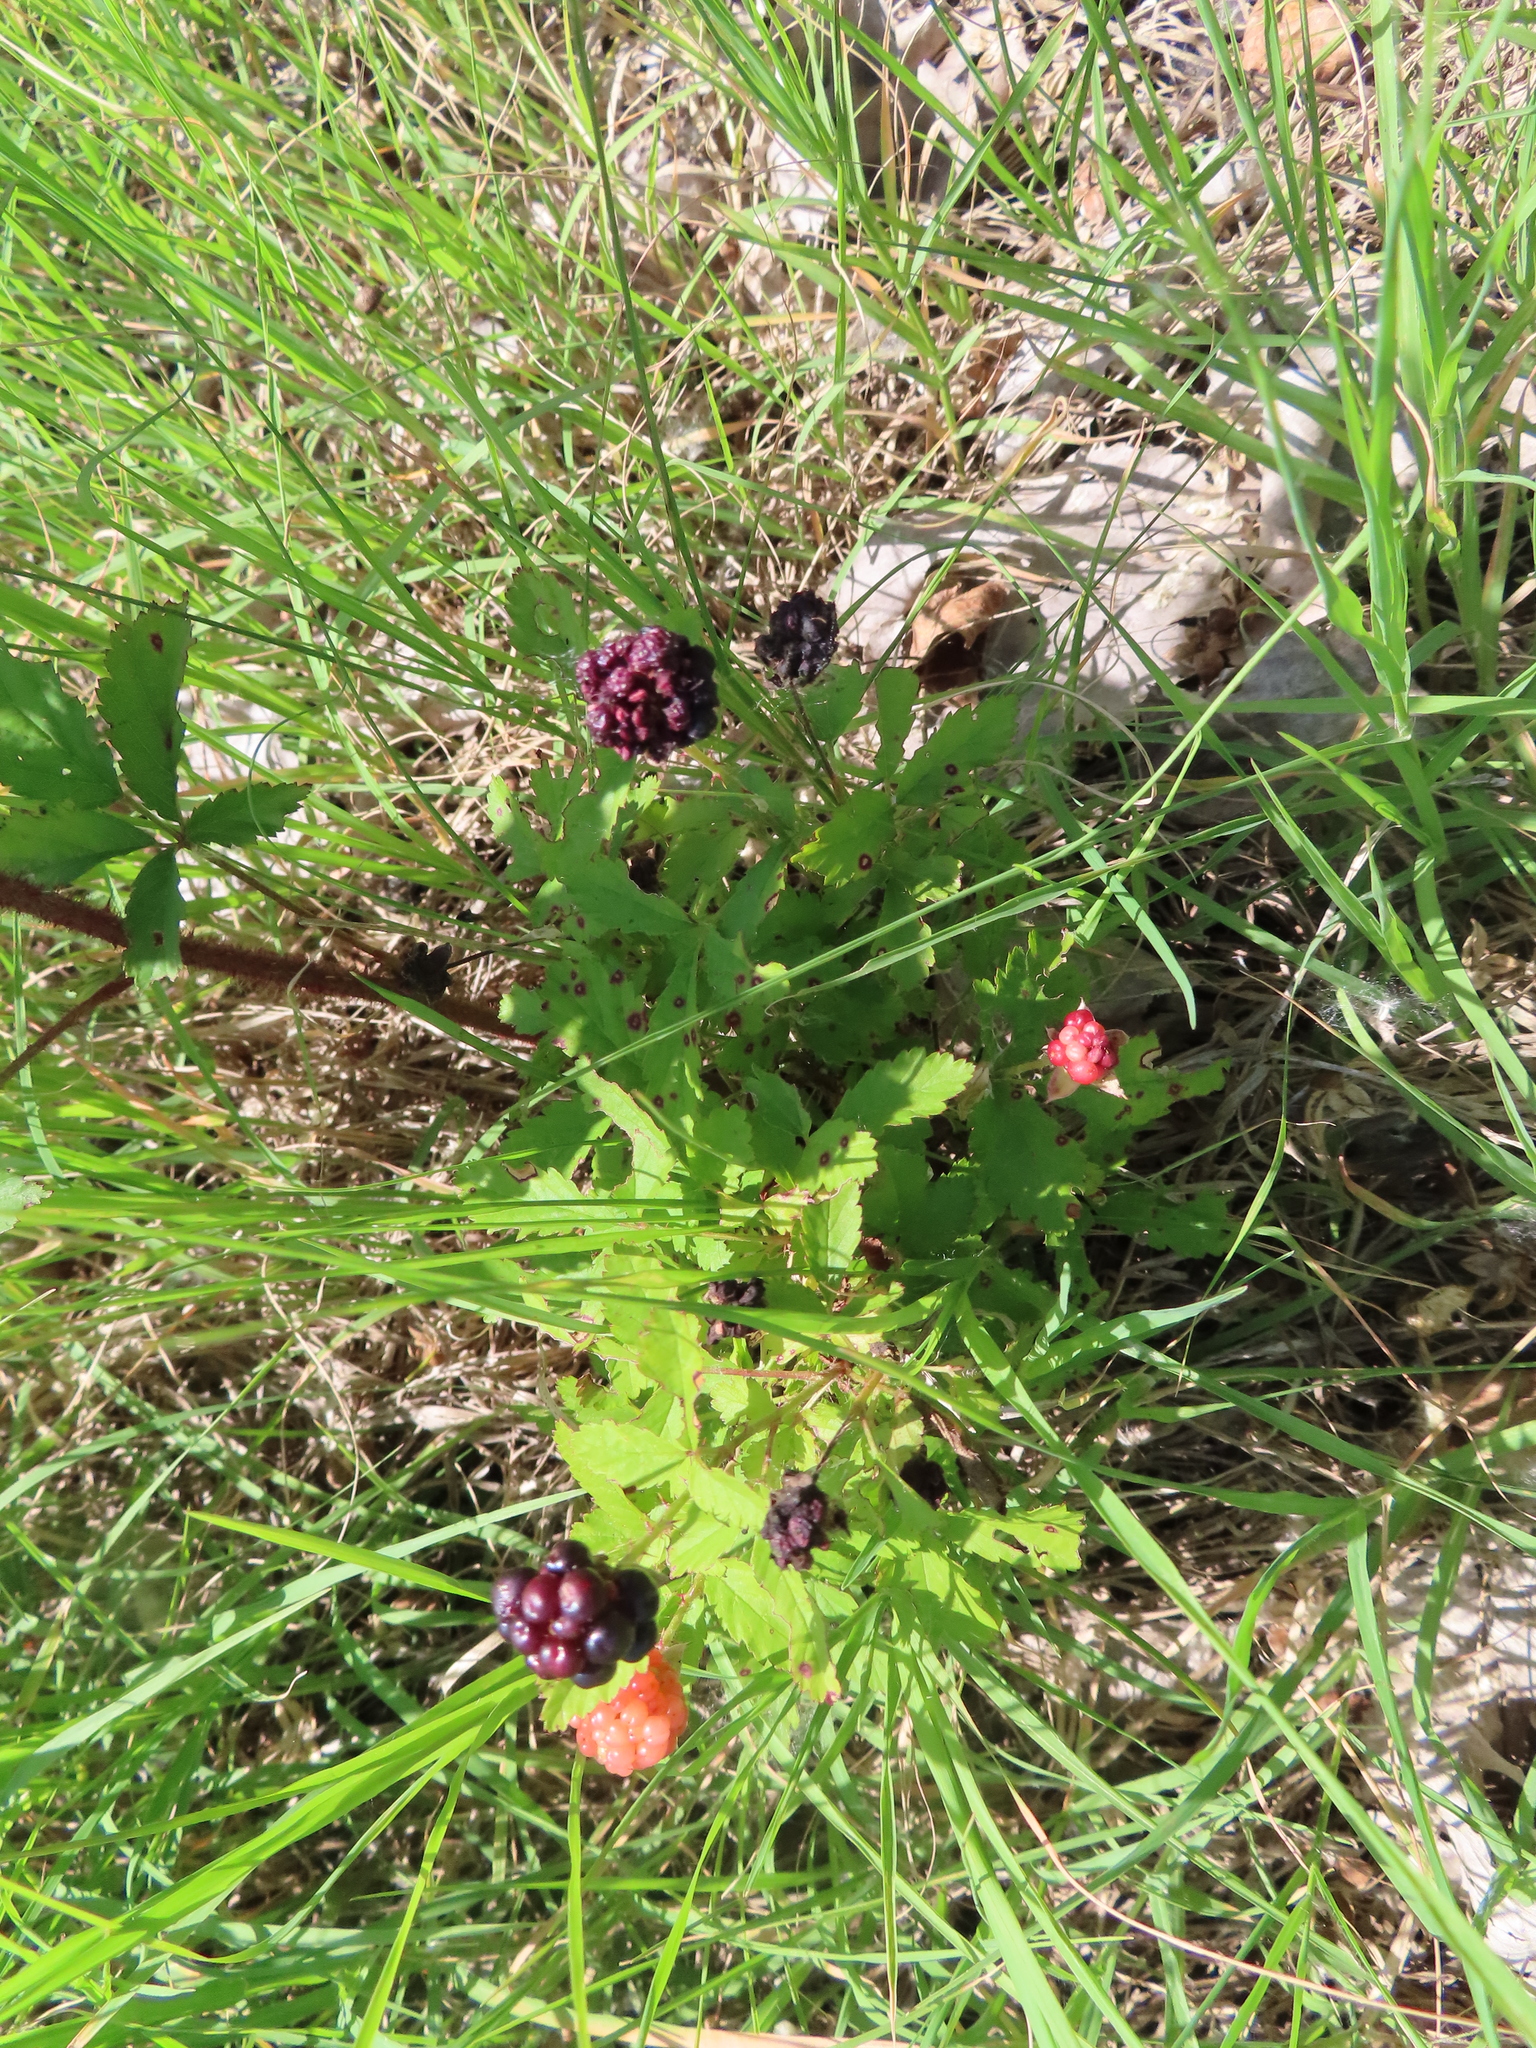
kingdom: Plantae
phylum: Tracheophyta
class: Magnoliopsida
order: Rosales
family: Rosaceae
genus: Rubus
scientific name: Rubus trivialis
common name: Southern dewberry
